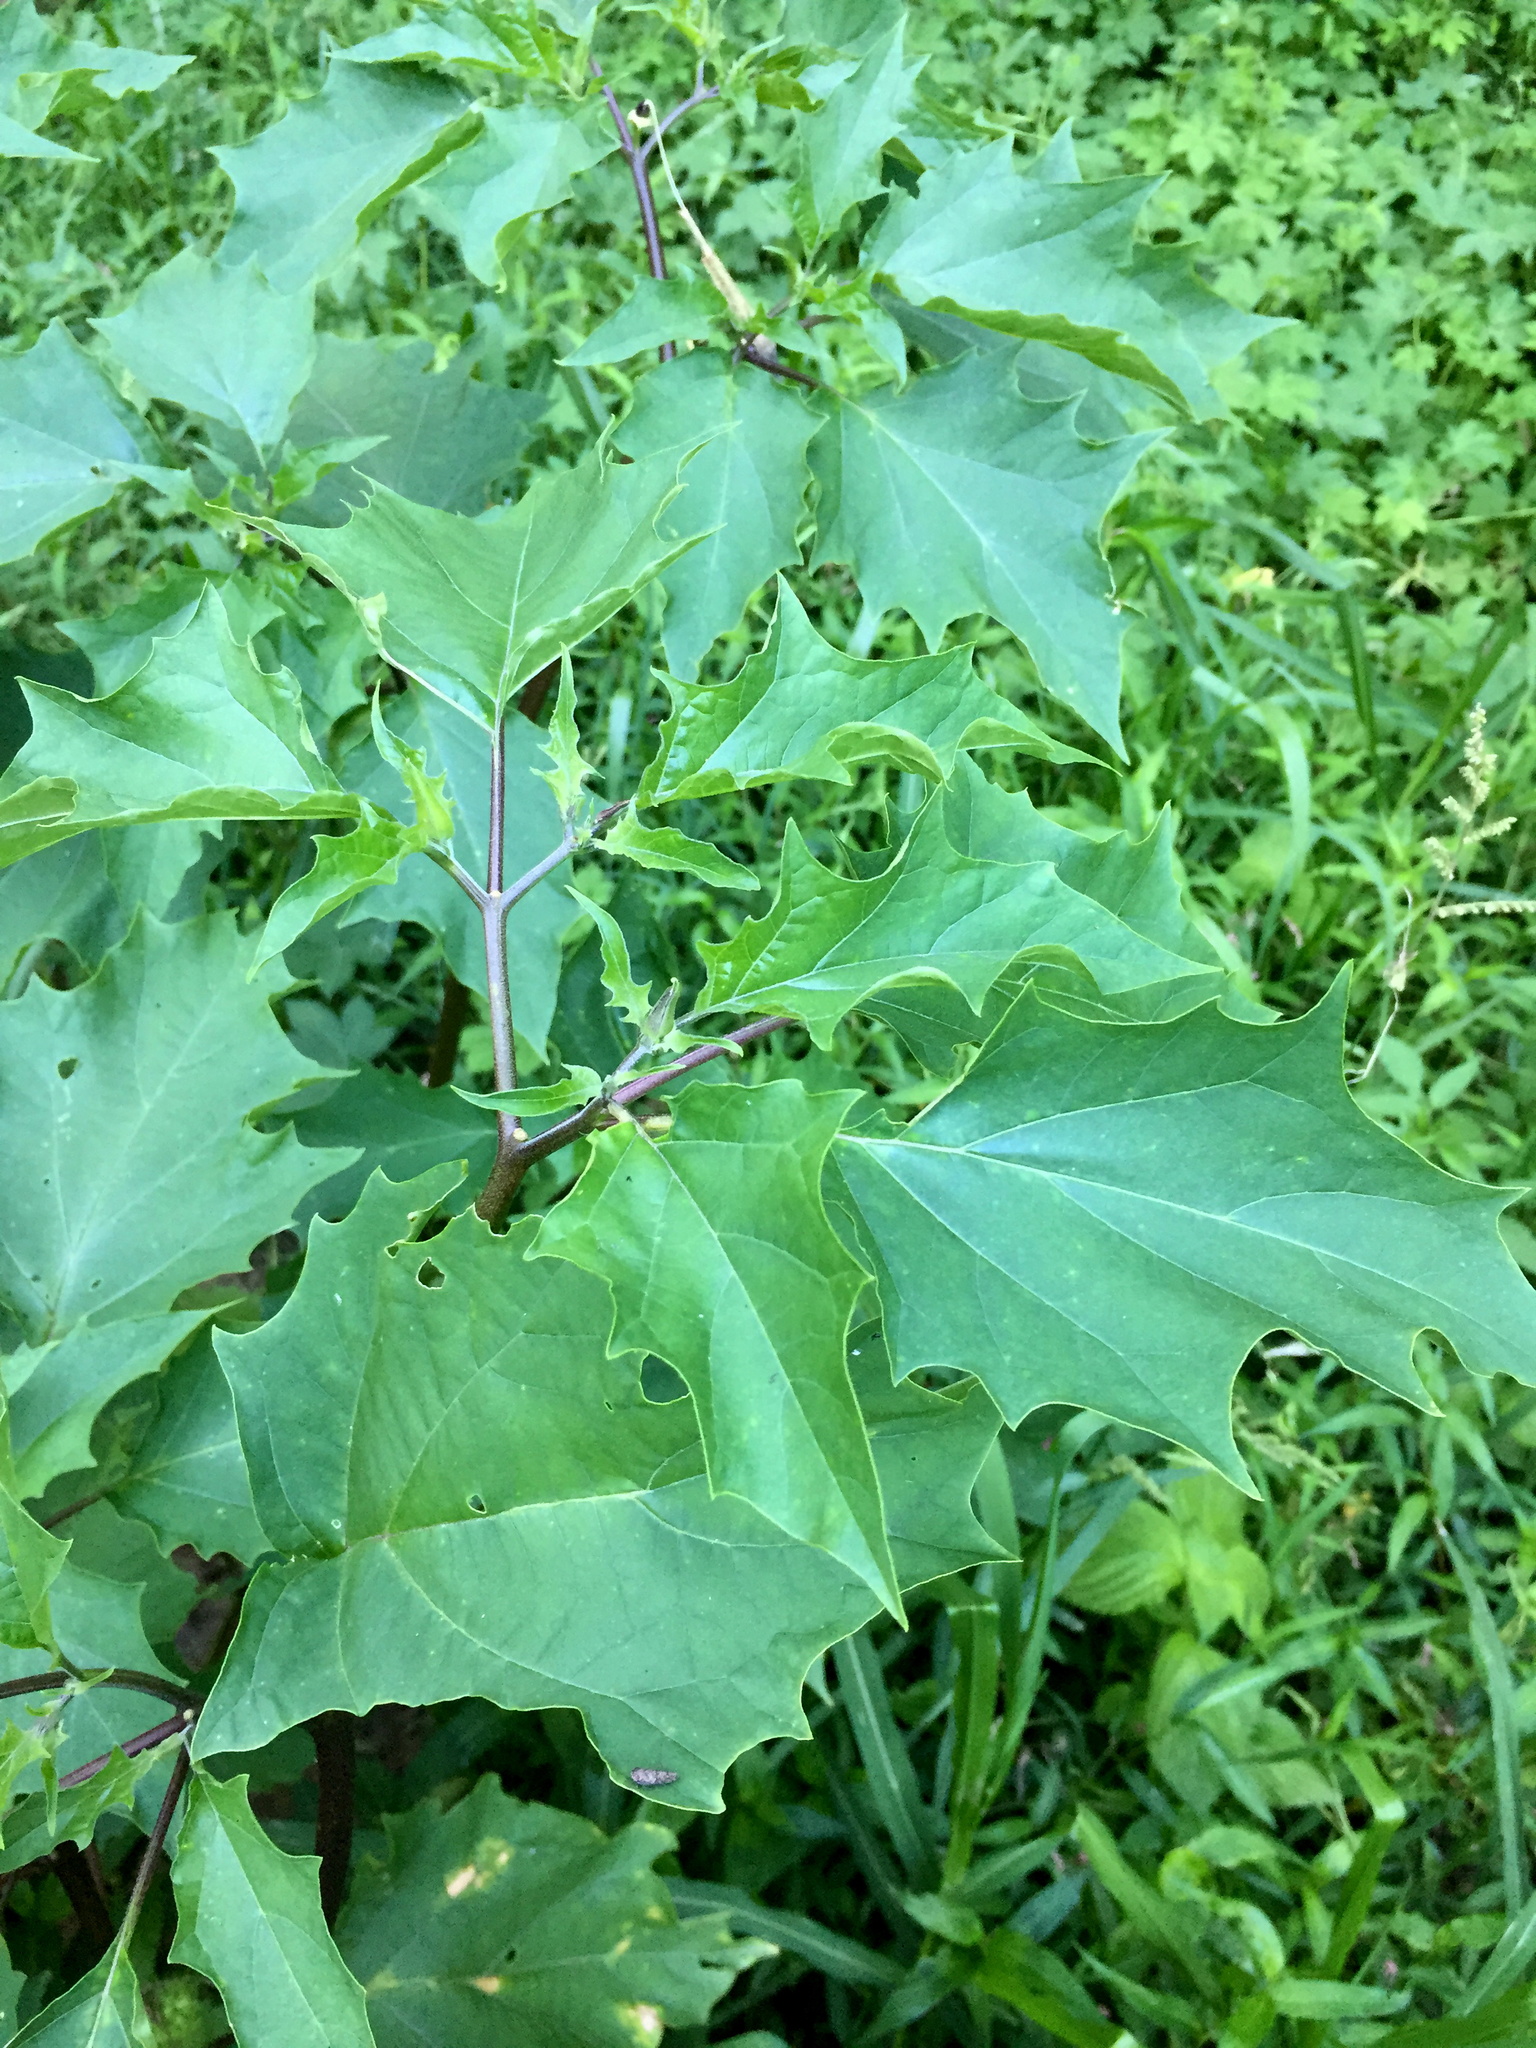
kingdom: Plantae
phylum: Tracheophyta
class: Magnoliopsida
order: Solanales
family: Solanaceae
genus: Datura
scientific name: Datura stramonium
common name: Thorn-apple
